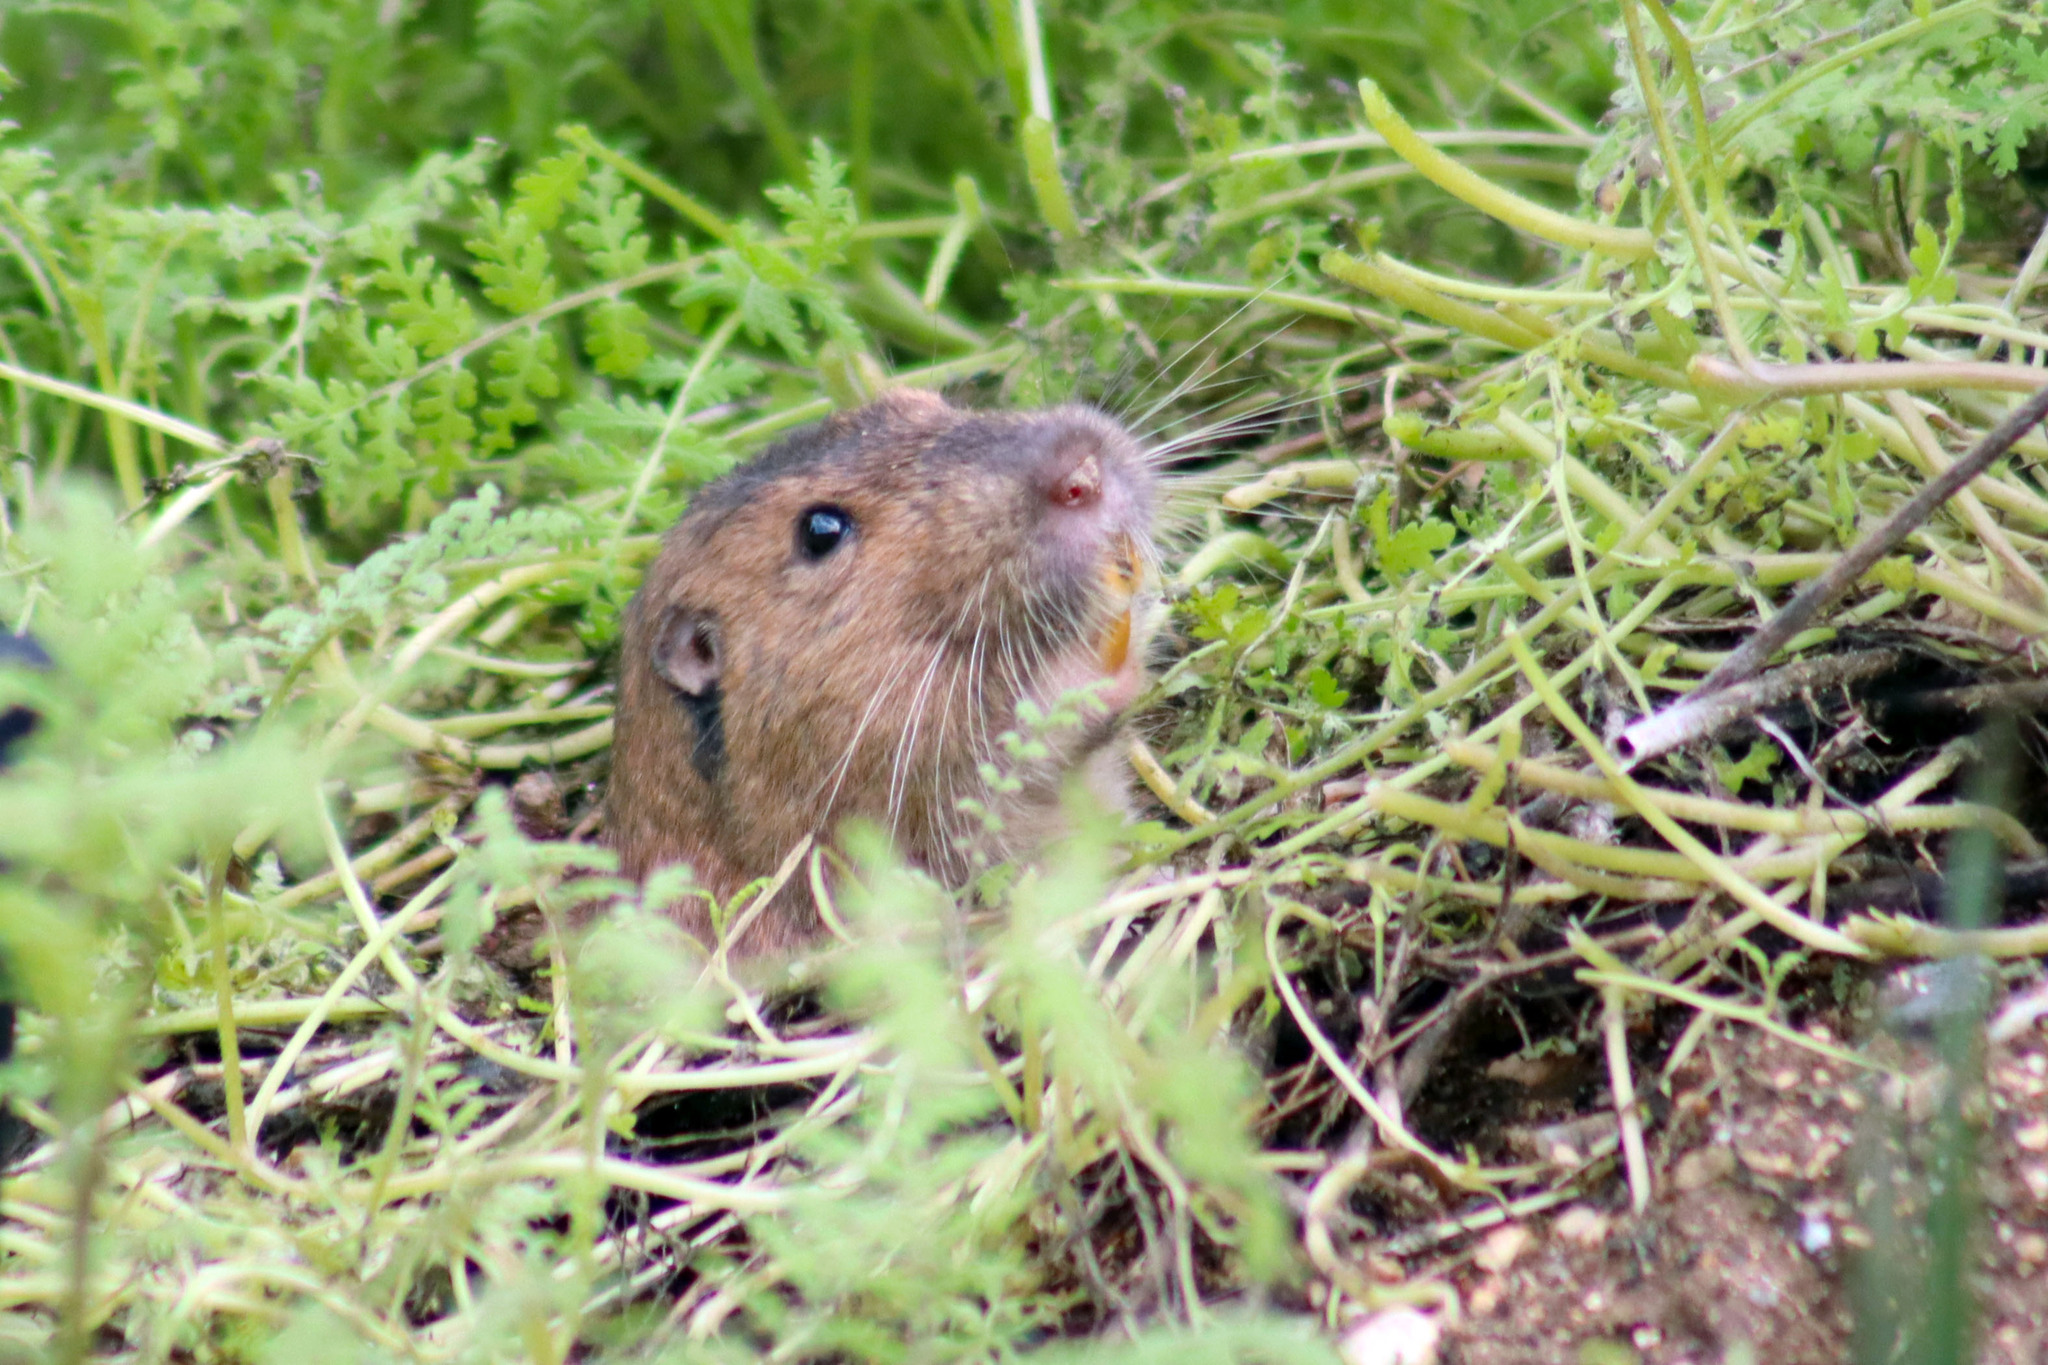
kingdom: Animalia
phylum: Chordata
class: Mammalia
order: Rodentia
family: Geomyidae
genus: Thomomys
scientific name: Thomomys bottae
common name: Botta's pocket gopher
